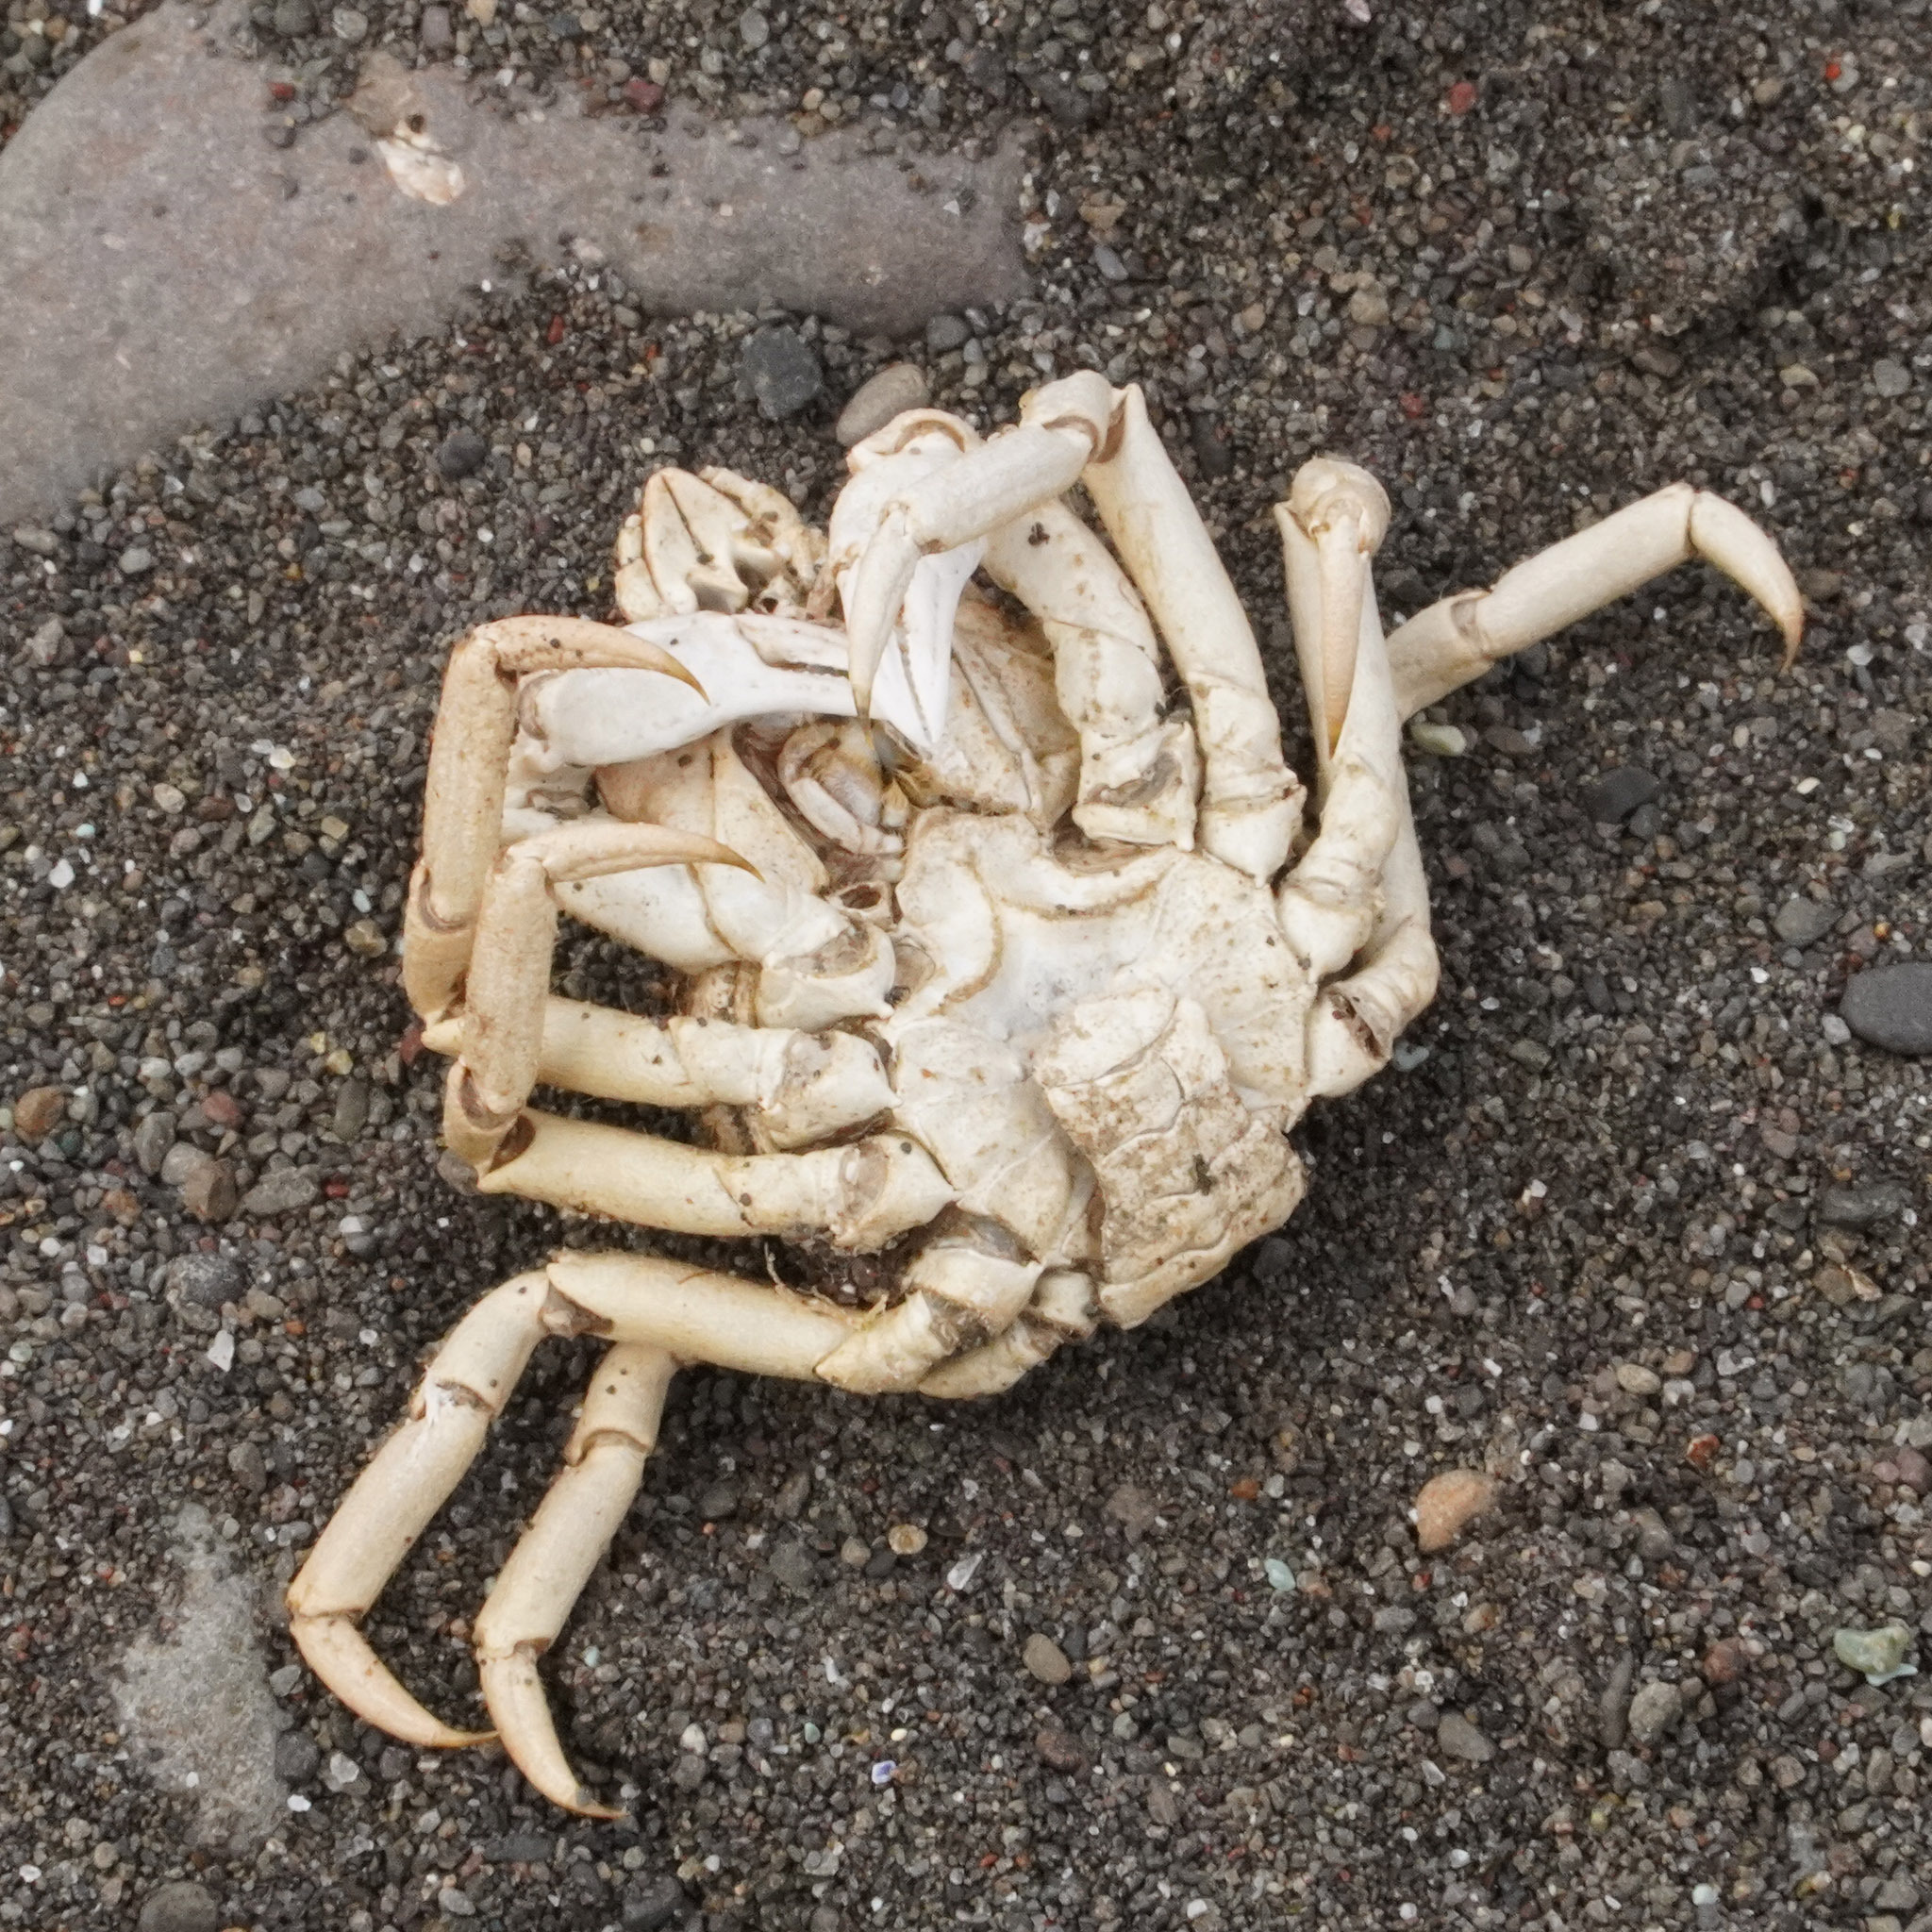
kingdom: Animalia
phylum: Arthropoda
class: Malacostraca
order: Decapoda
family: Oregoniidae
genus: Hyas
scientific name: Hyas araneus
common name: Great spider crab
